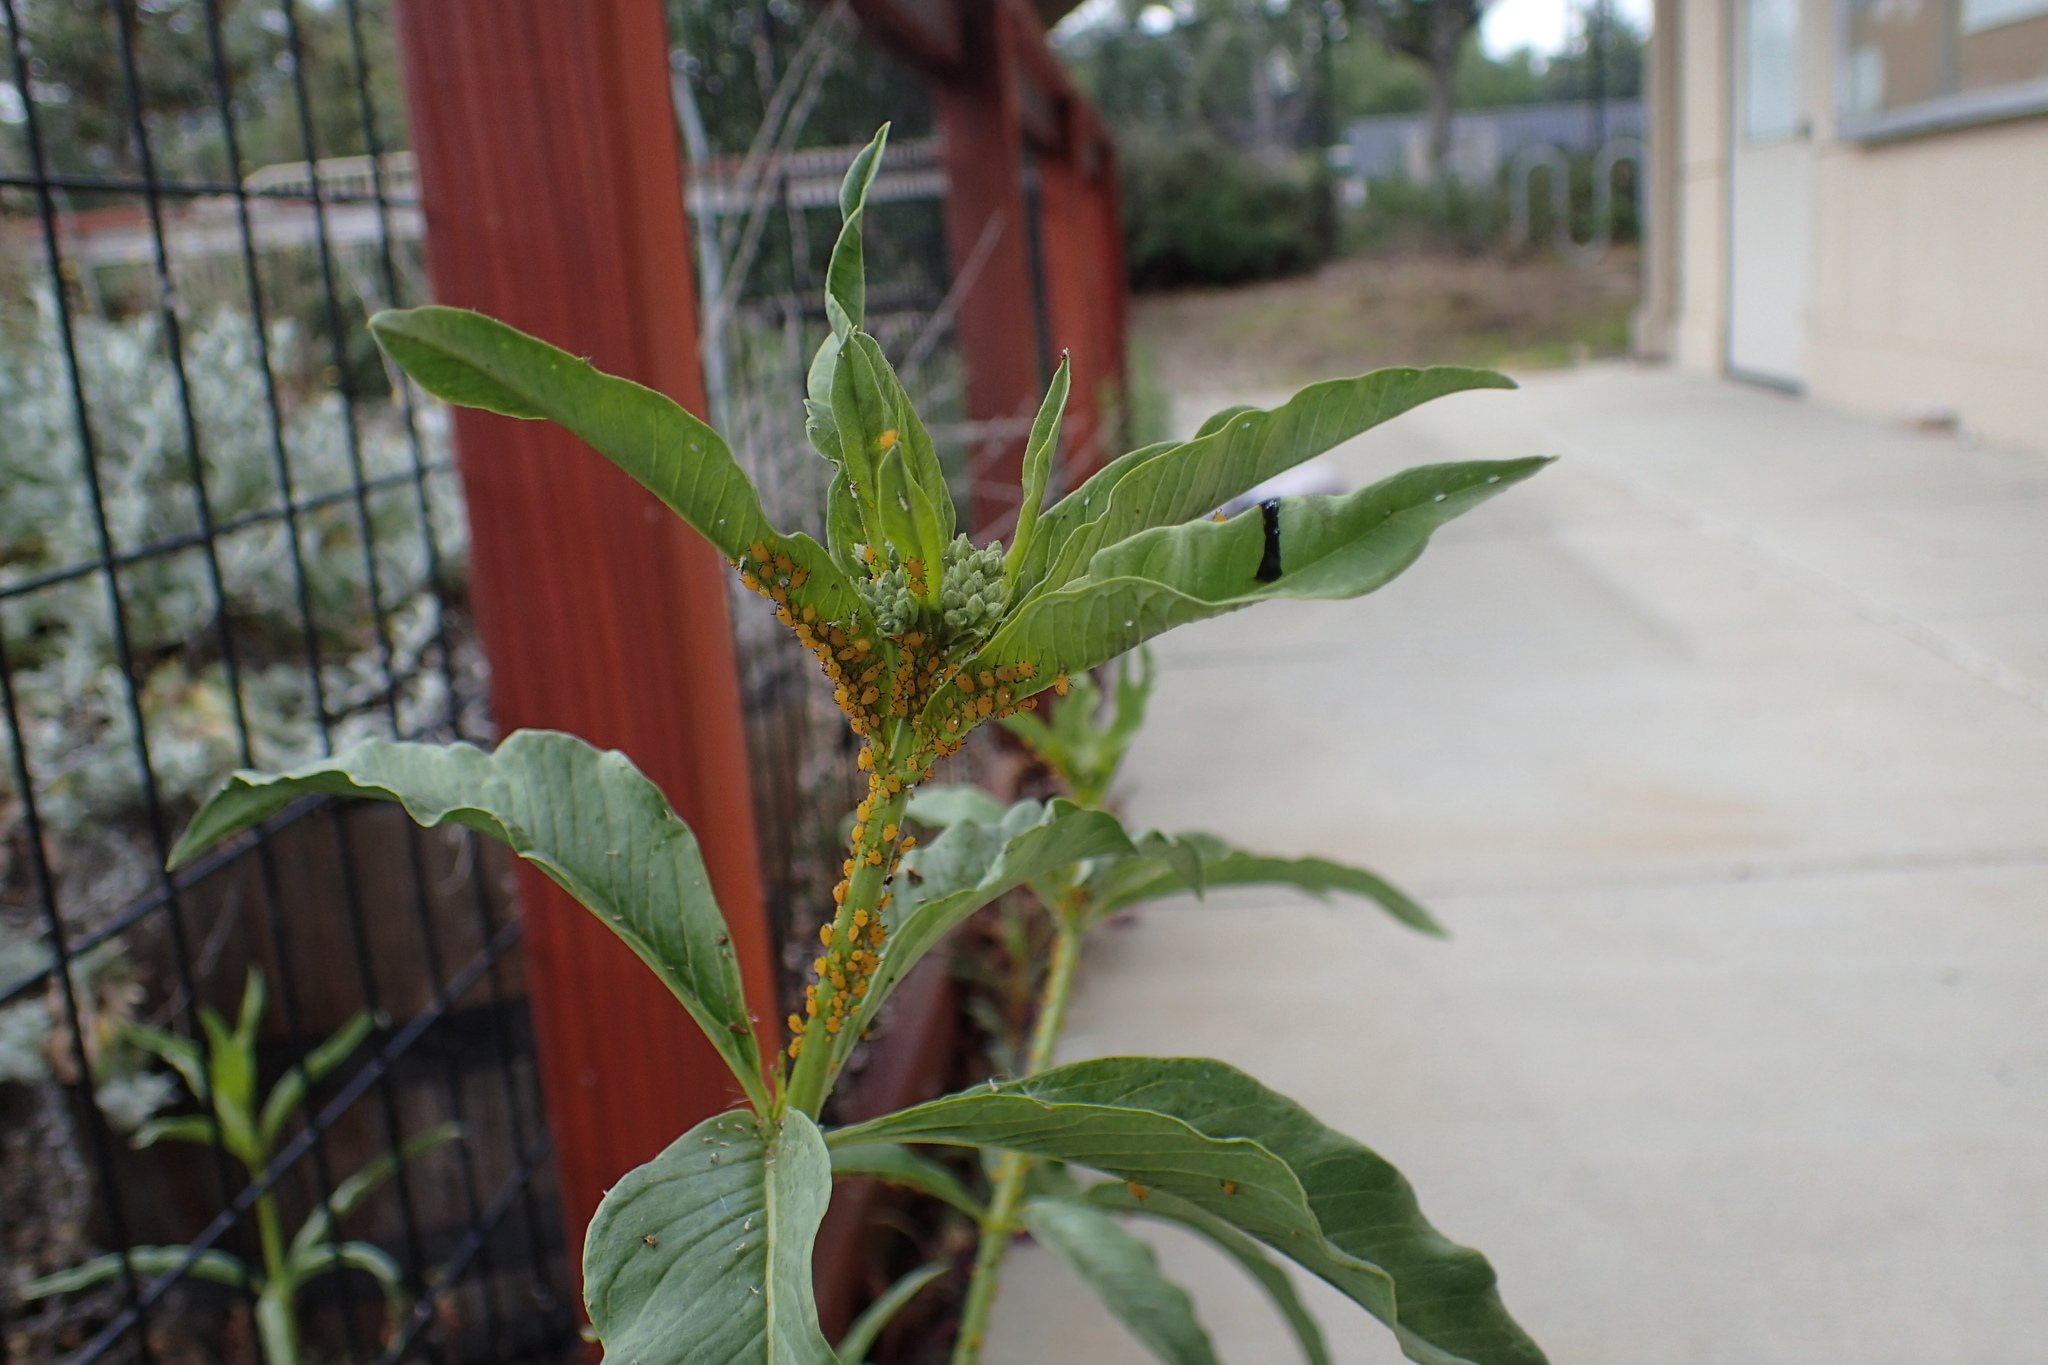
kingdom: Animalia
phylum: Arthropoda
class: Insecta
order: Hemiptera
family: Aphididae
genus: Aphis
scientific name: Aphis nerii
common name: Oleander aphid
